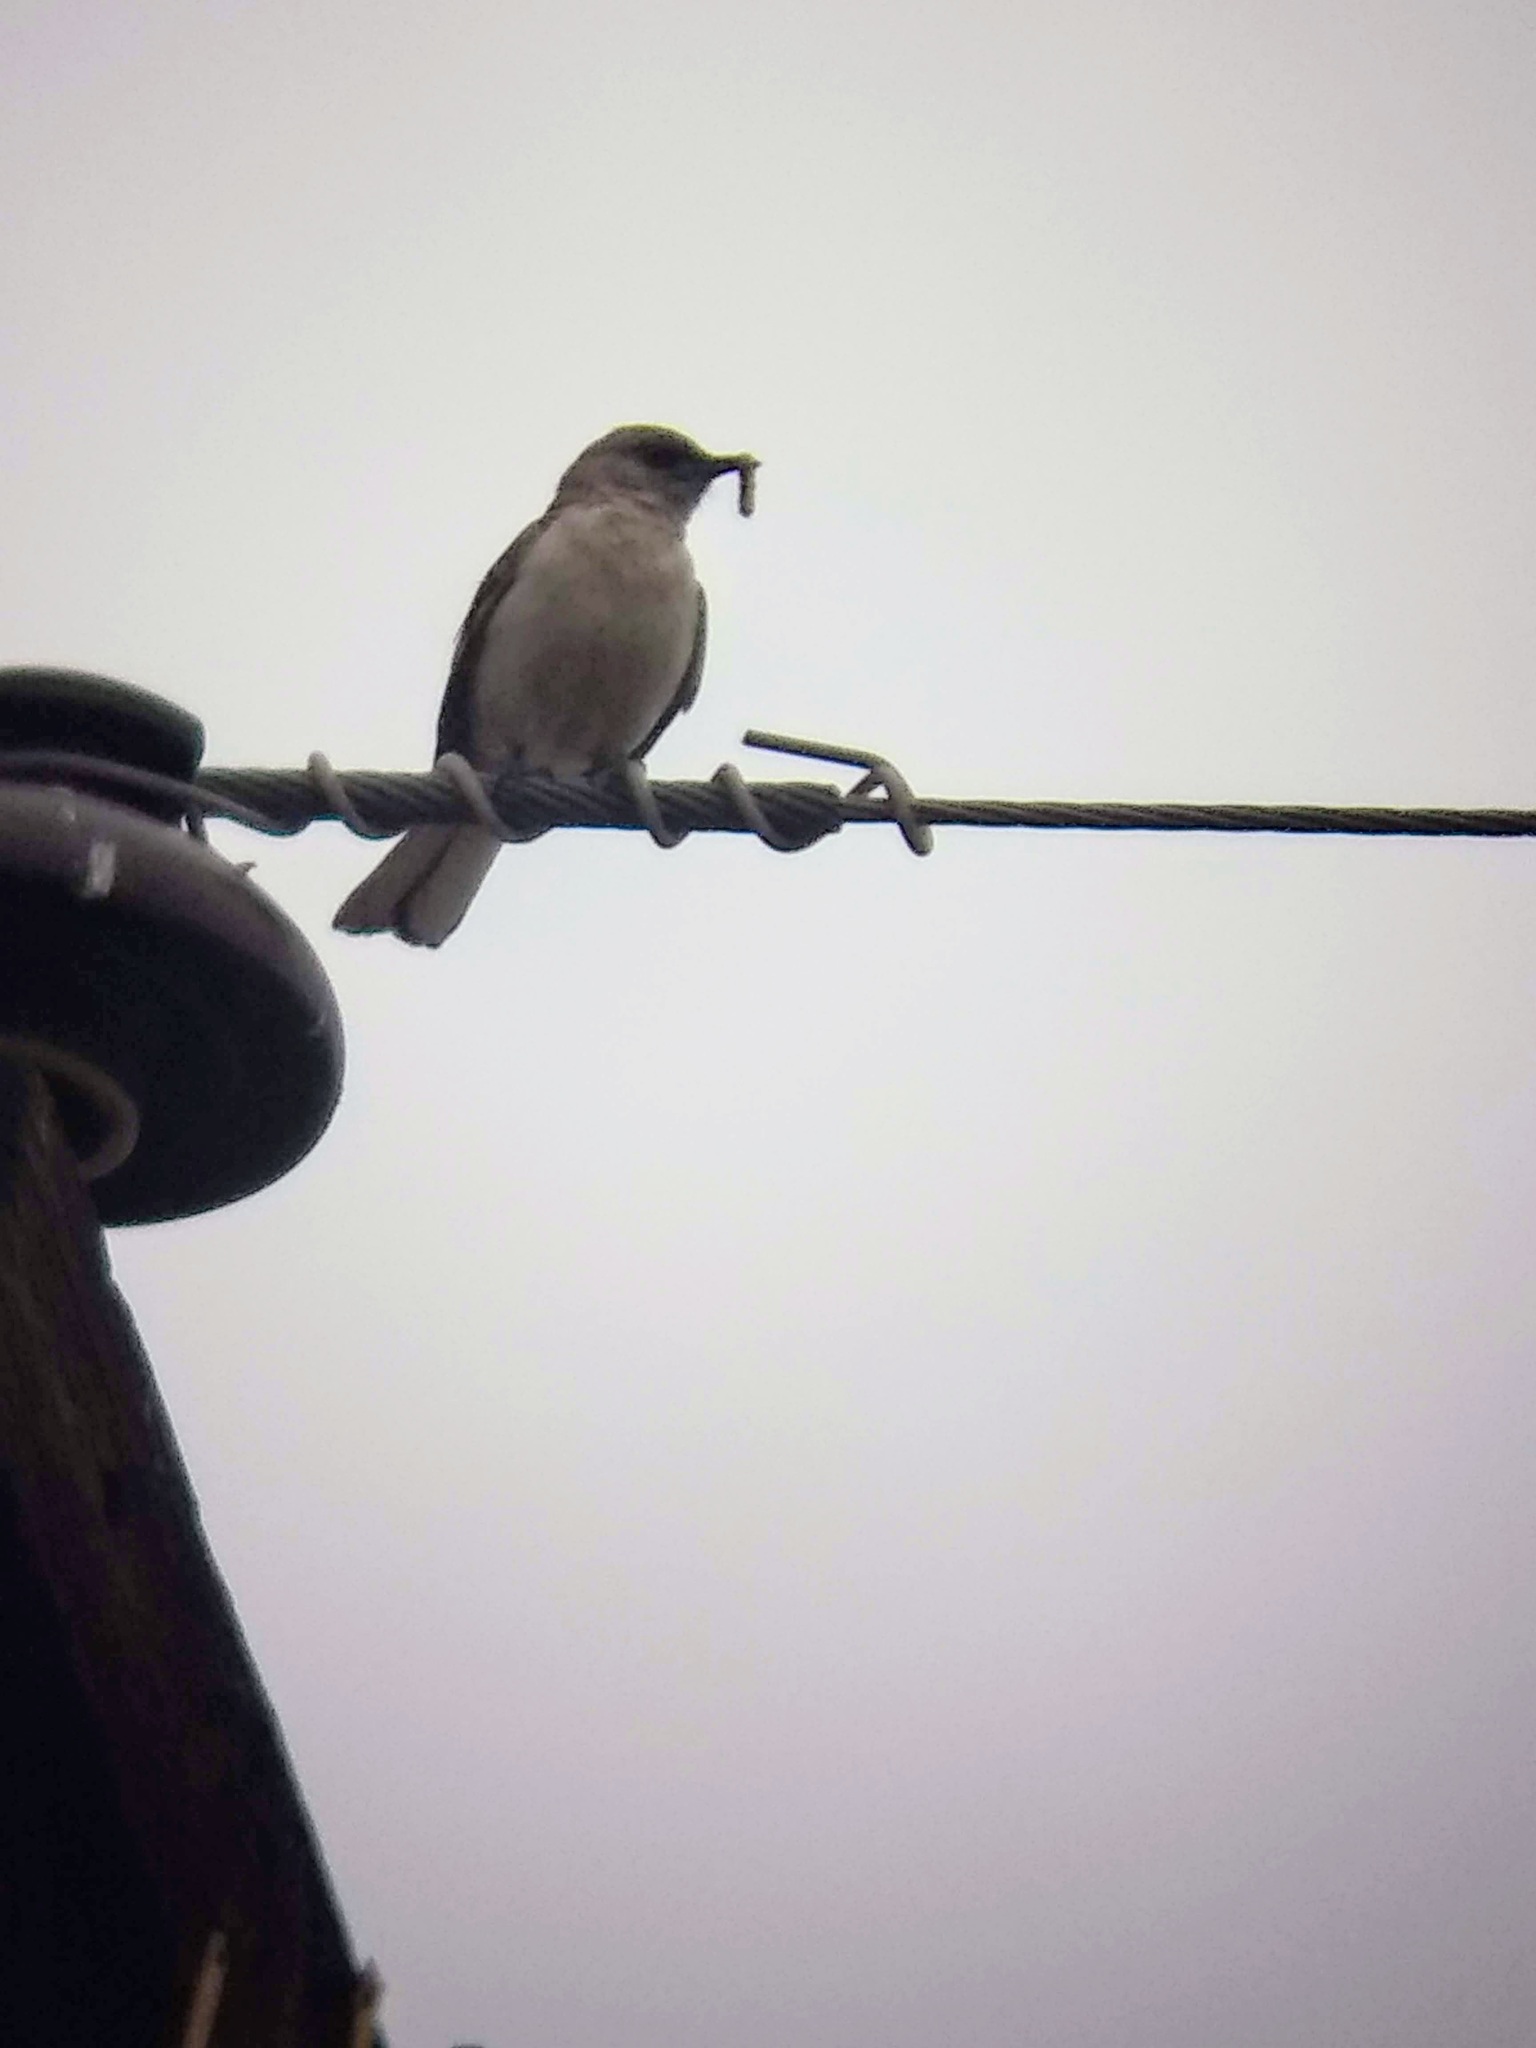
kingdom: Animalia
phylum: Chordata
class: Aves
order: Passeriformes
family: Mimidae
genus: Mimus
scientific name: Mimus polyglottos
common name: Northern mockingbird
